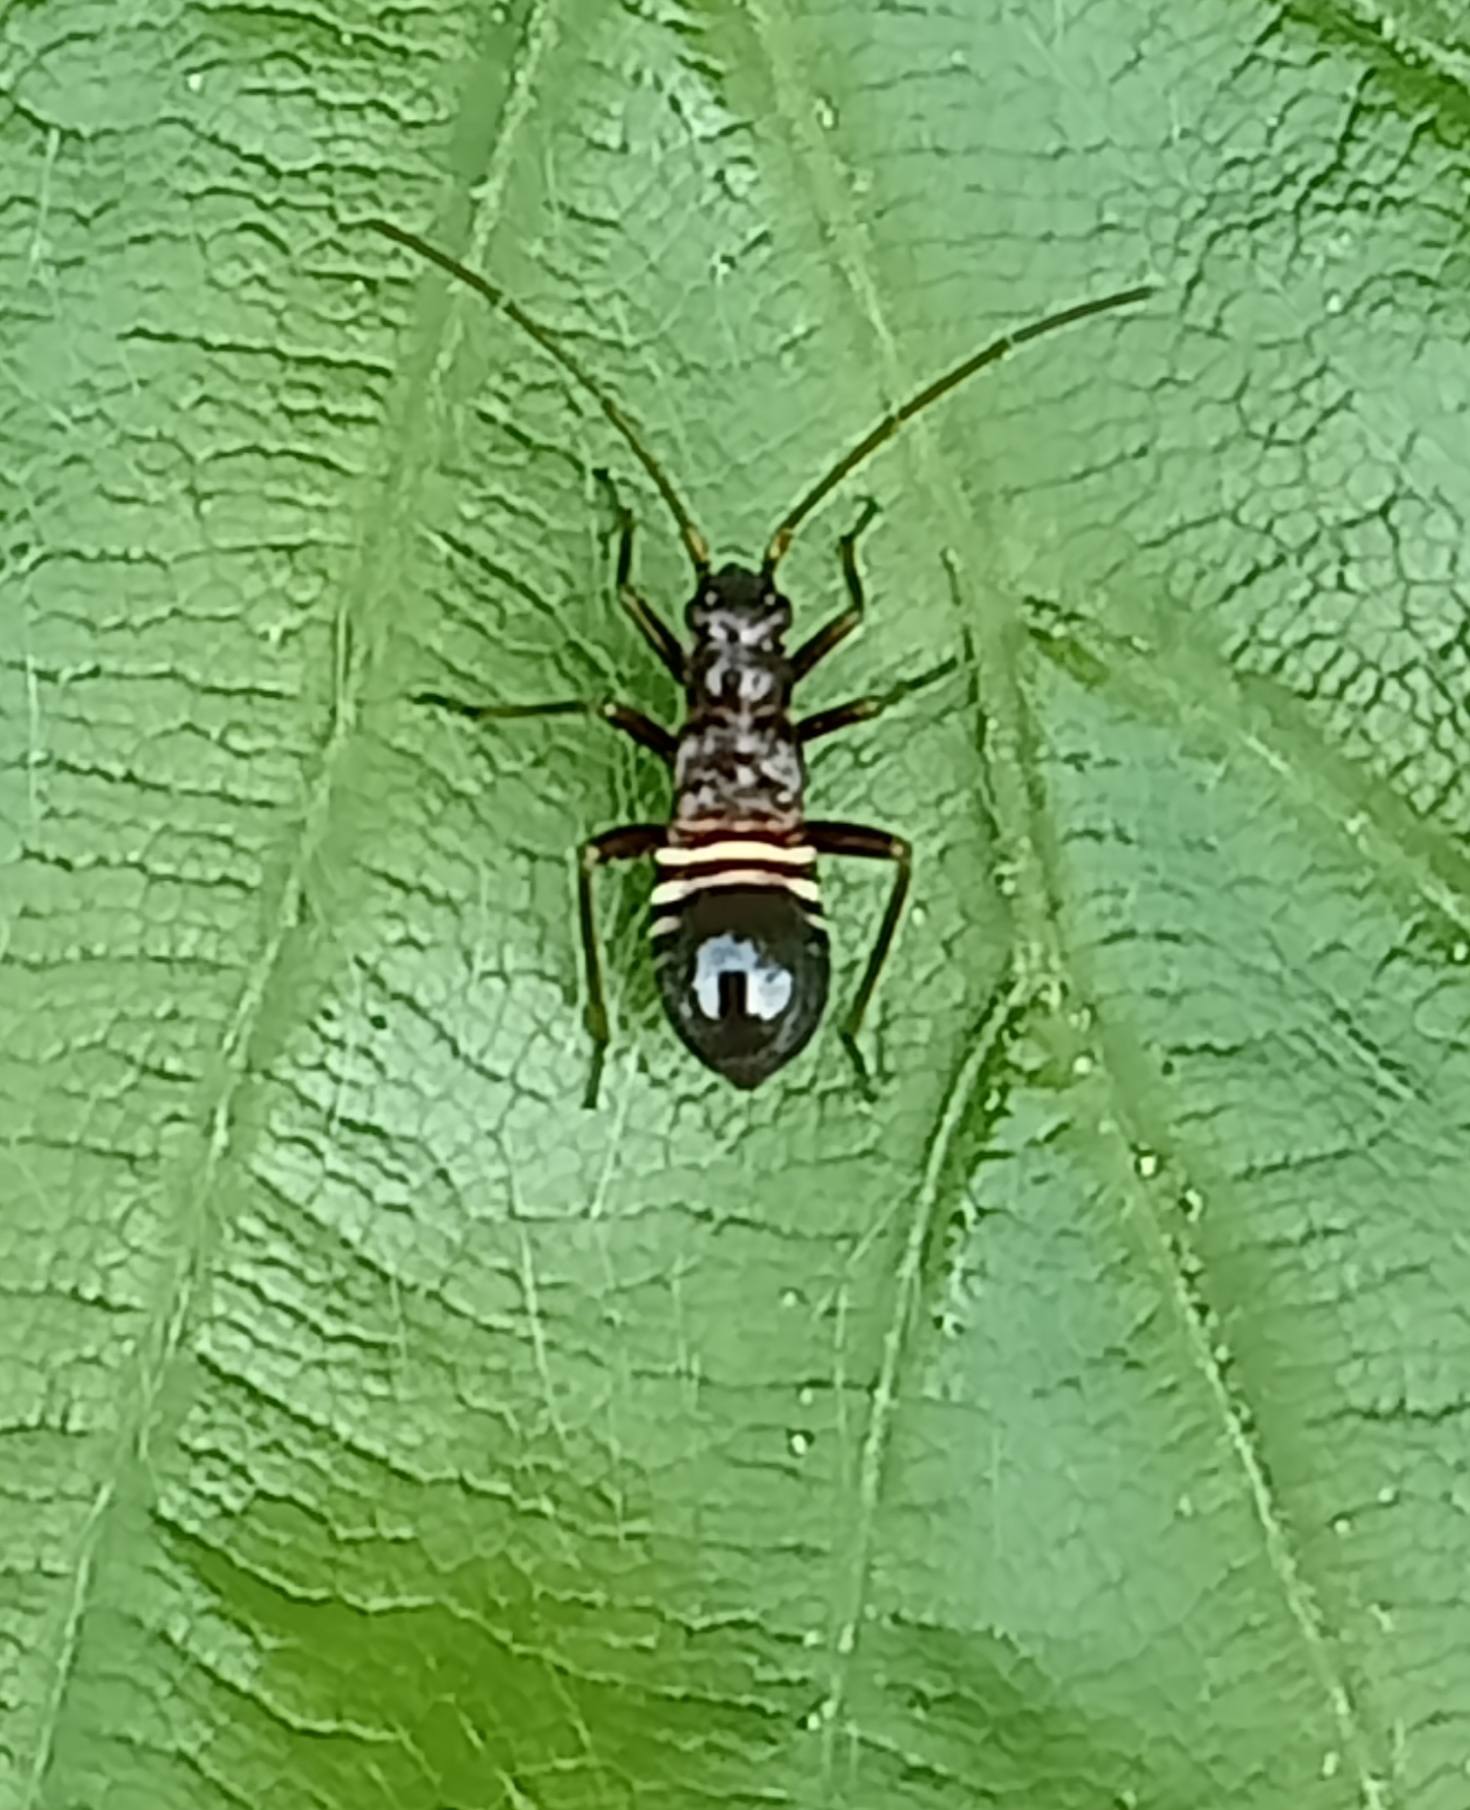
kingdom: Animalia
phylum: Arthropoda
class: Insecta
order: Hemiptera
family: Miridae
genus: Miris
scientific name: Miris striatus
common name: Fine streaked bugkin
